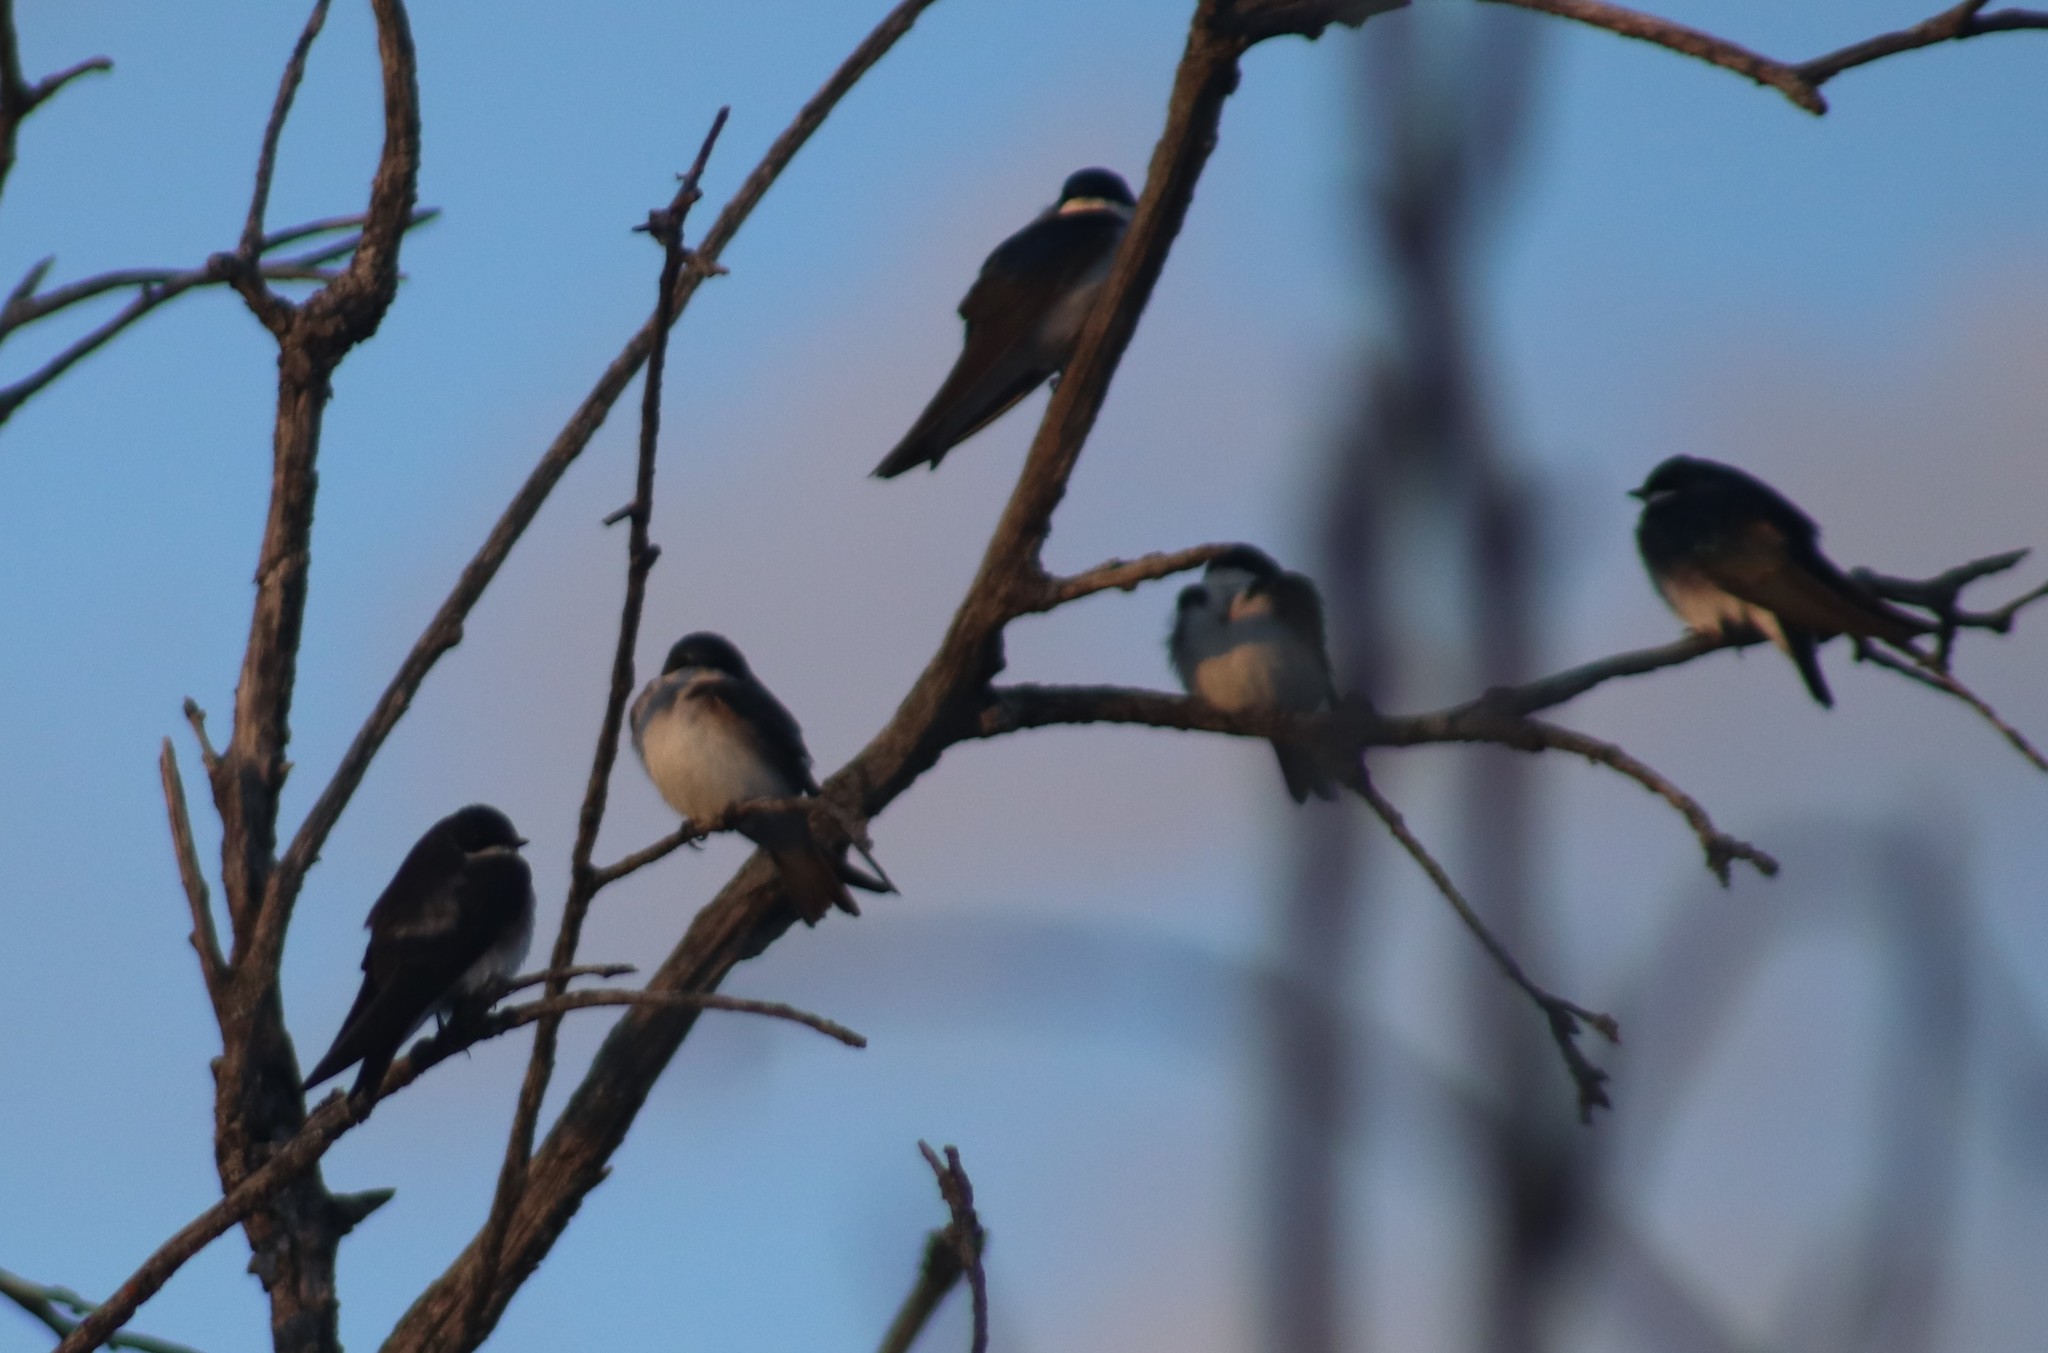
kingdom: Animalia
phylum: Chordata
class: Aves
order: Passeriformes
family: Hirundinidae
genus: Tachycineta
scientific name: Tachycineta bicolor
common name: Tree swallow
